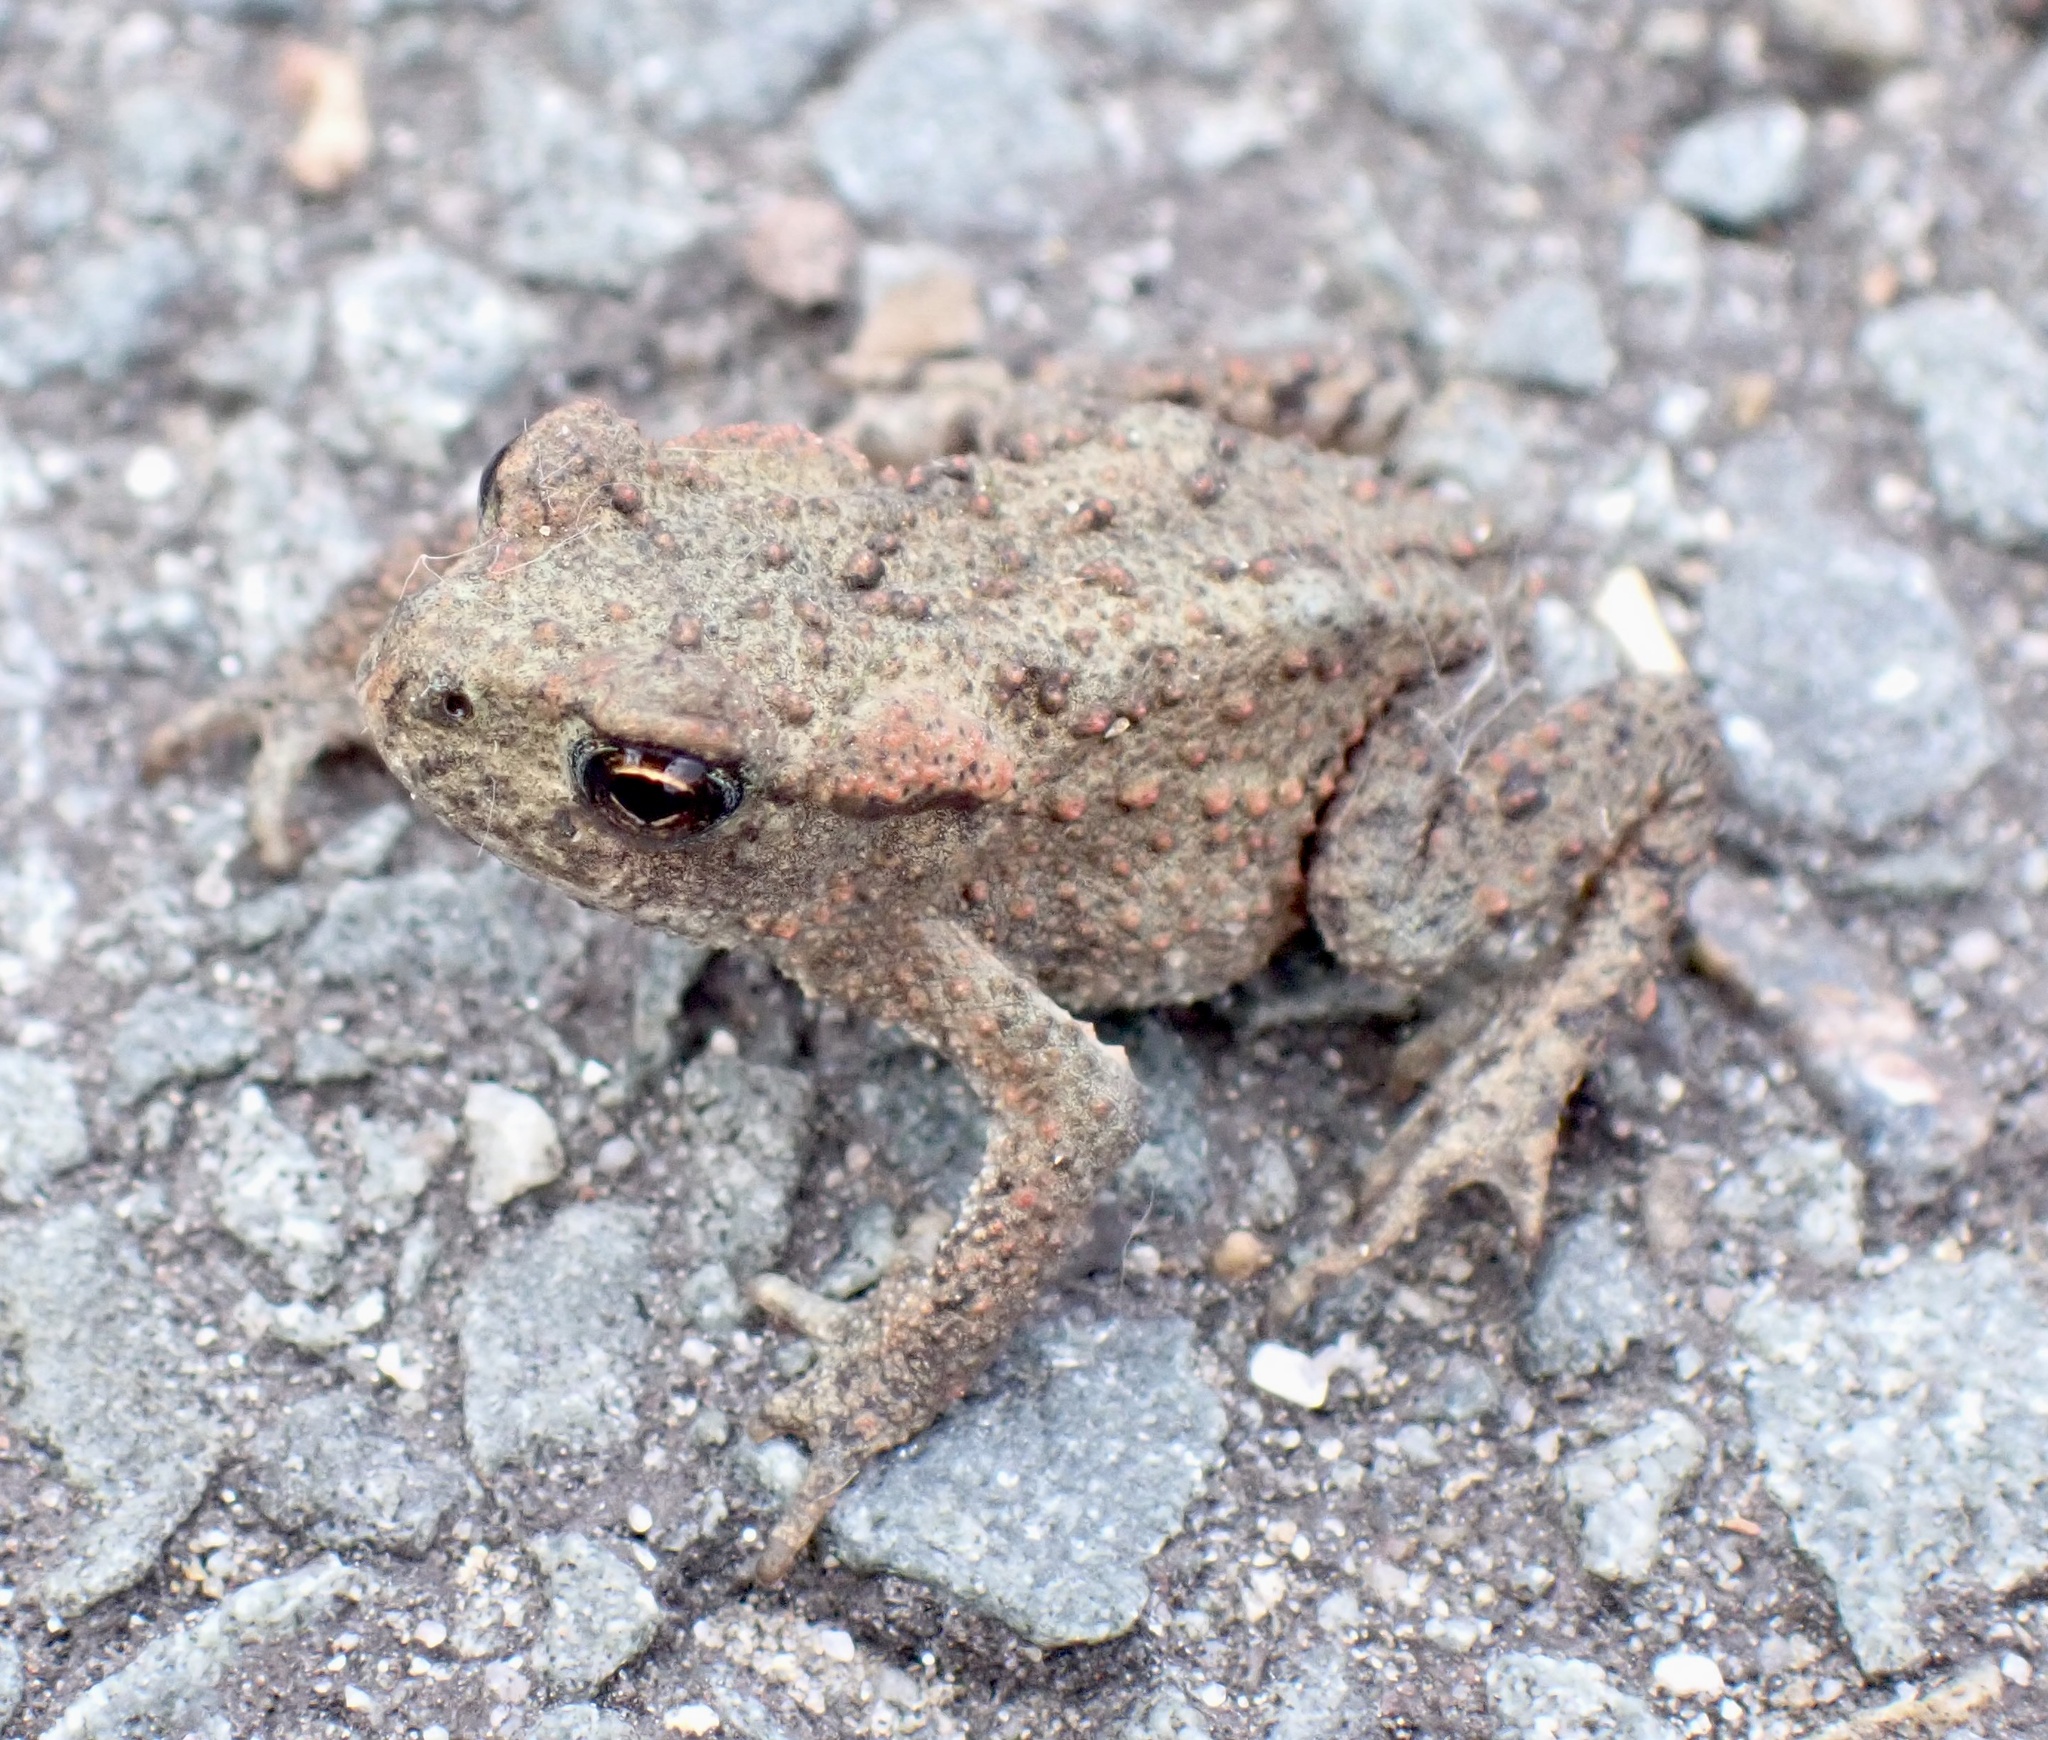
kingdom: Animalia
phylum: Chordata
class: Amphibia
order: Anura
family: Bufonidae
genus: Bufo
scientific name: Bufo bufo
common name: Common toad
